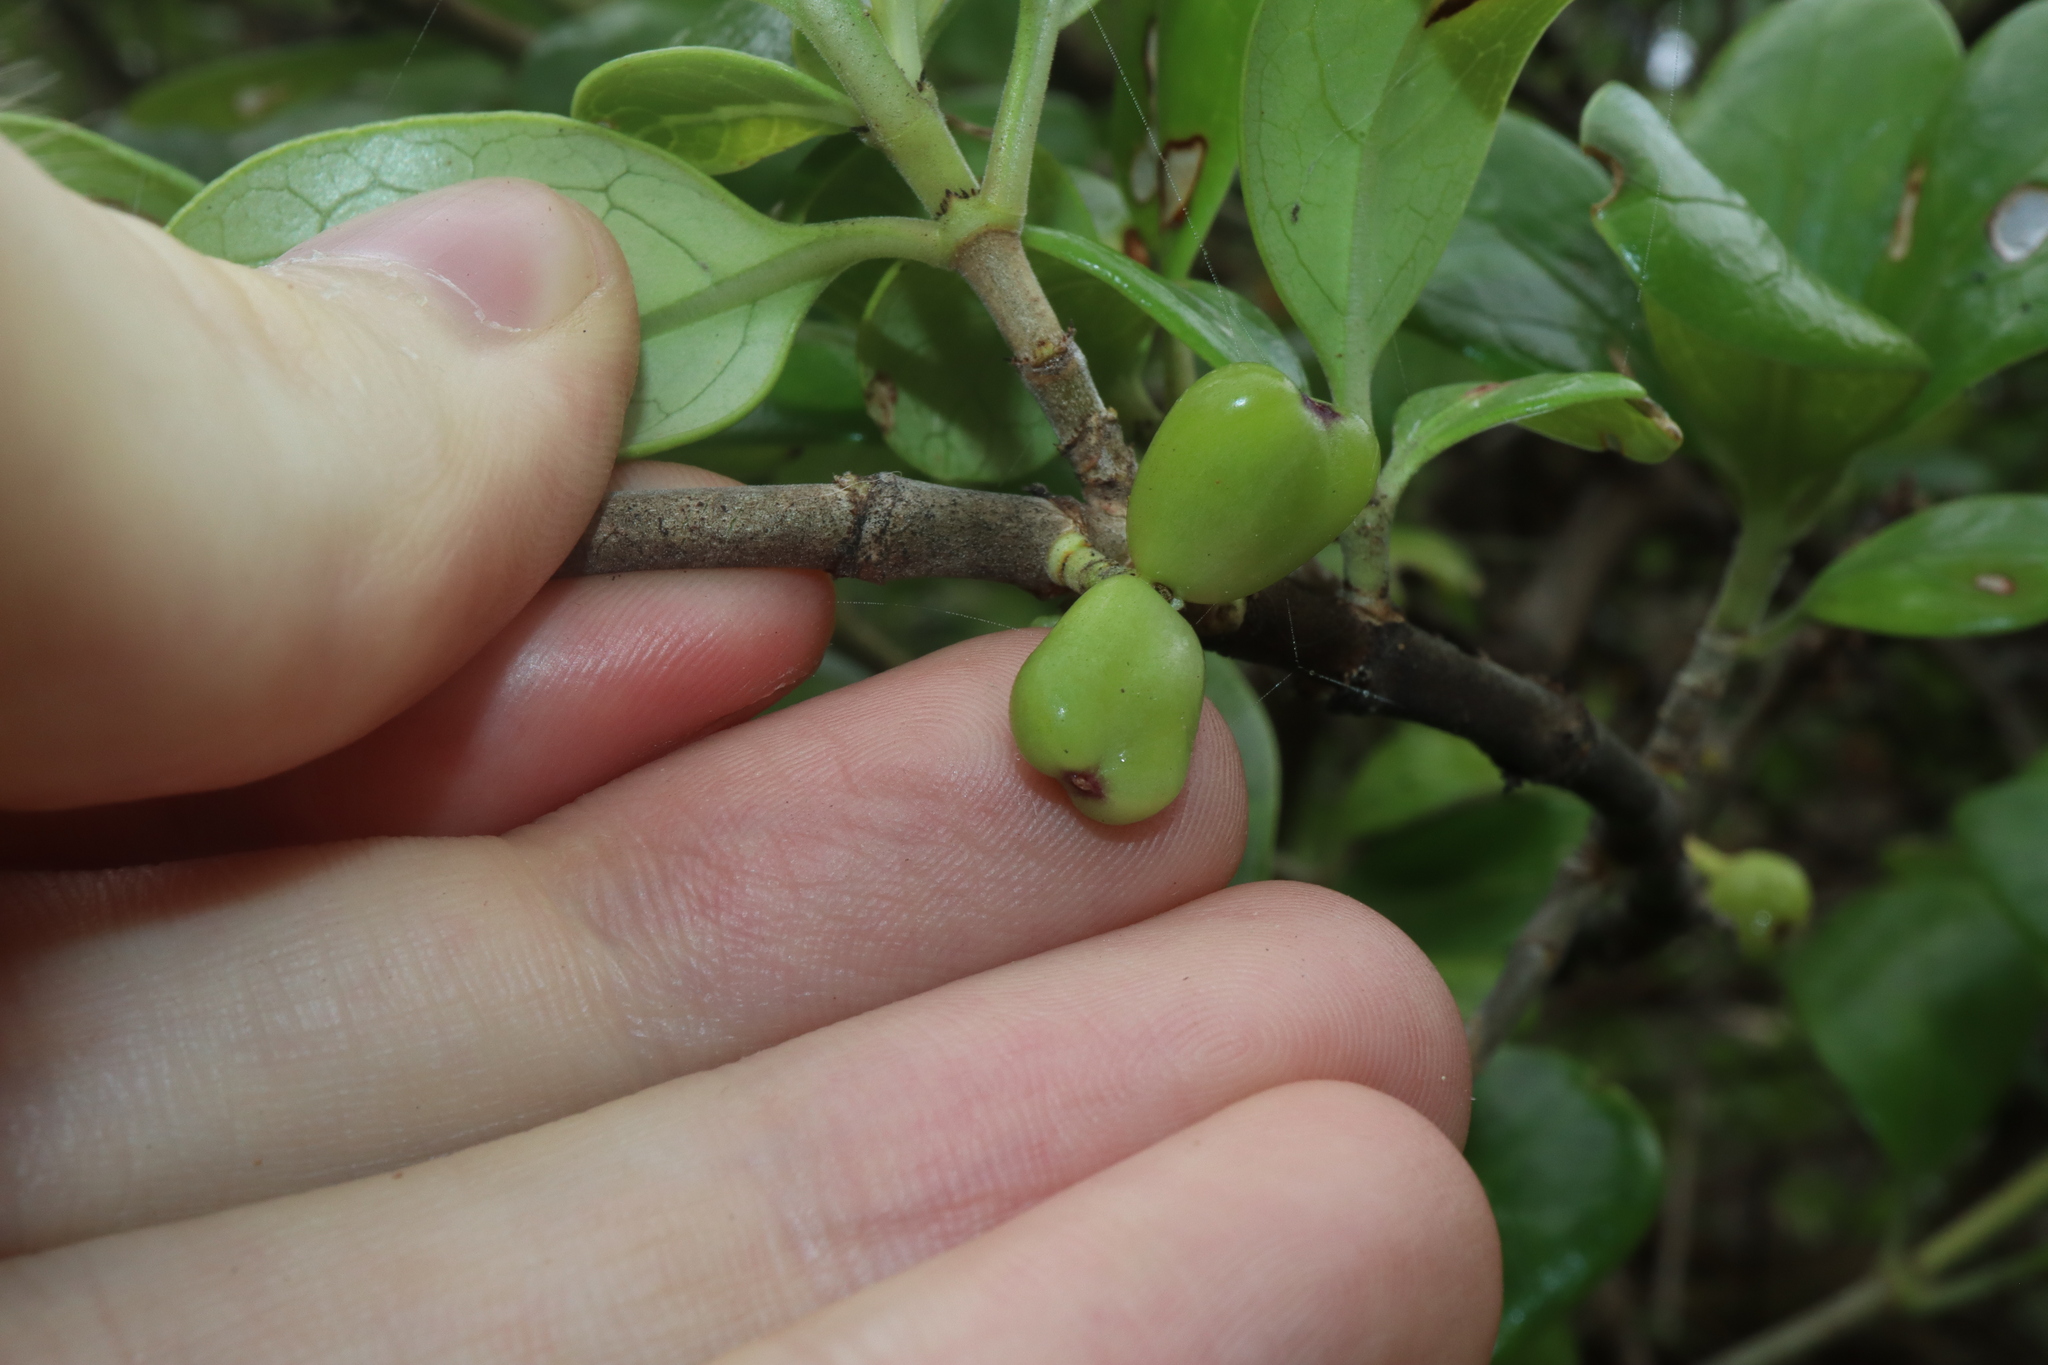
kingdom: Plantae
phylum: Tracheophyta
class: Magnoliopsida
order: Gentianales
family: Rubiaceae
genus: Coprosma
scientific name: Coprosma repens
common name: Tree bedstraw
